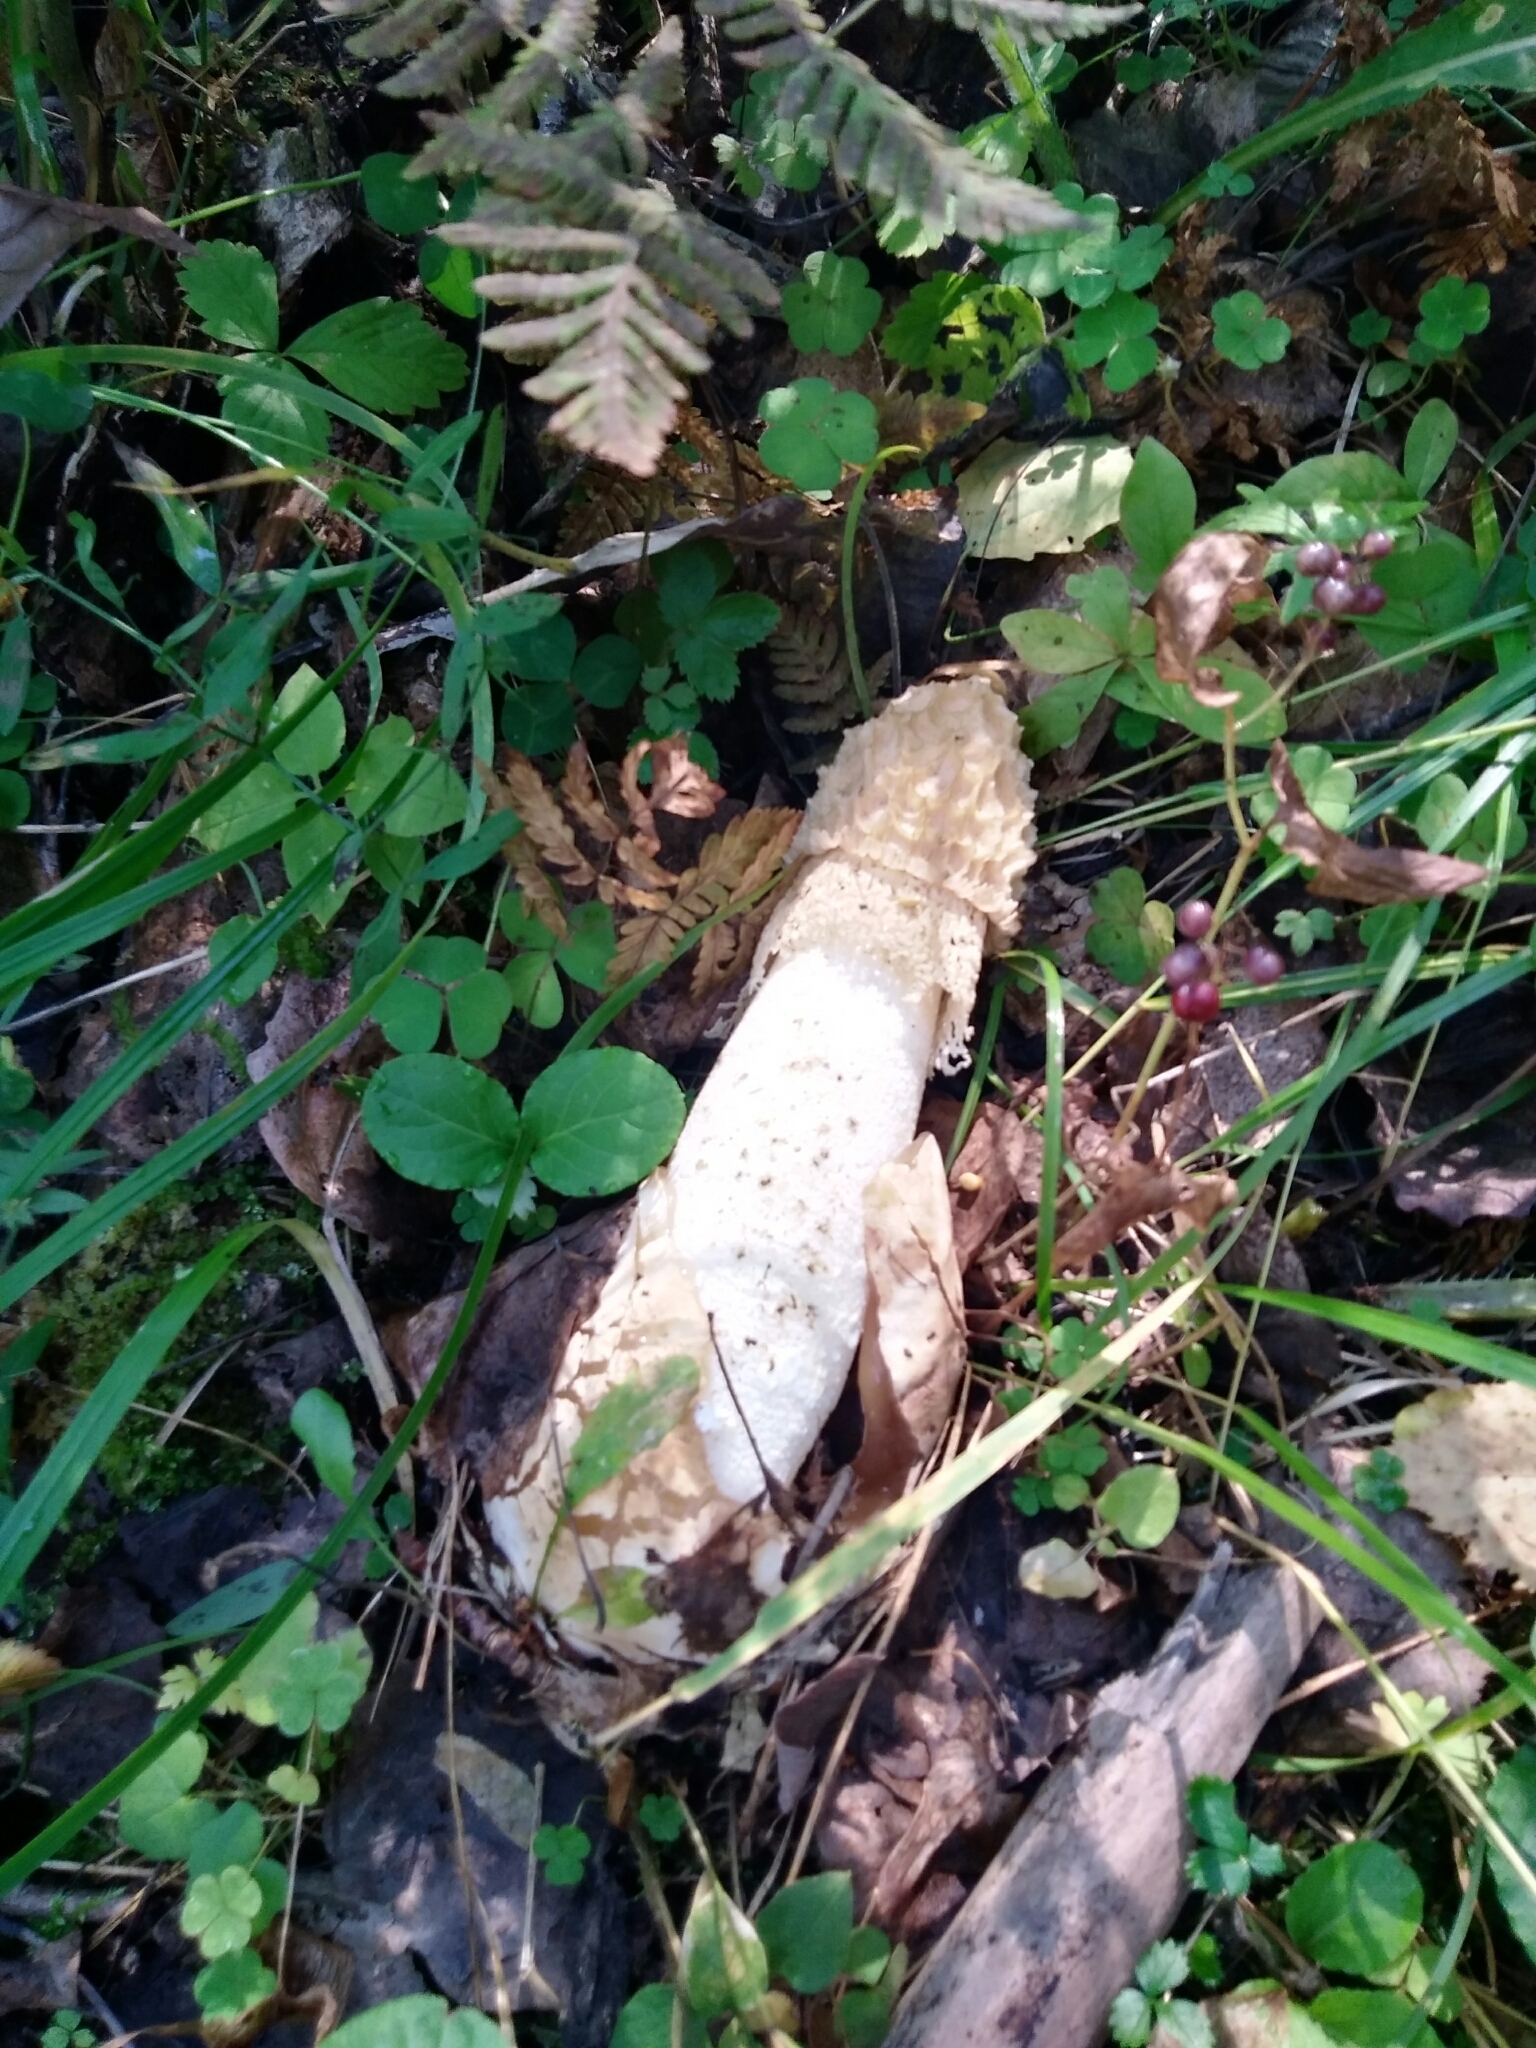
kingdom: Fungi
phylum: Basidiomycota
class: Agaricomycetes
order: Phallales
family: Phallaceae
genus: Phallus
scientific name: Phallus ultraduplicatus
